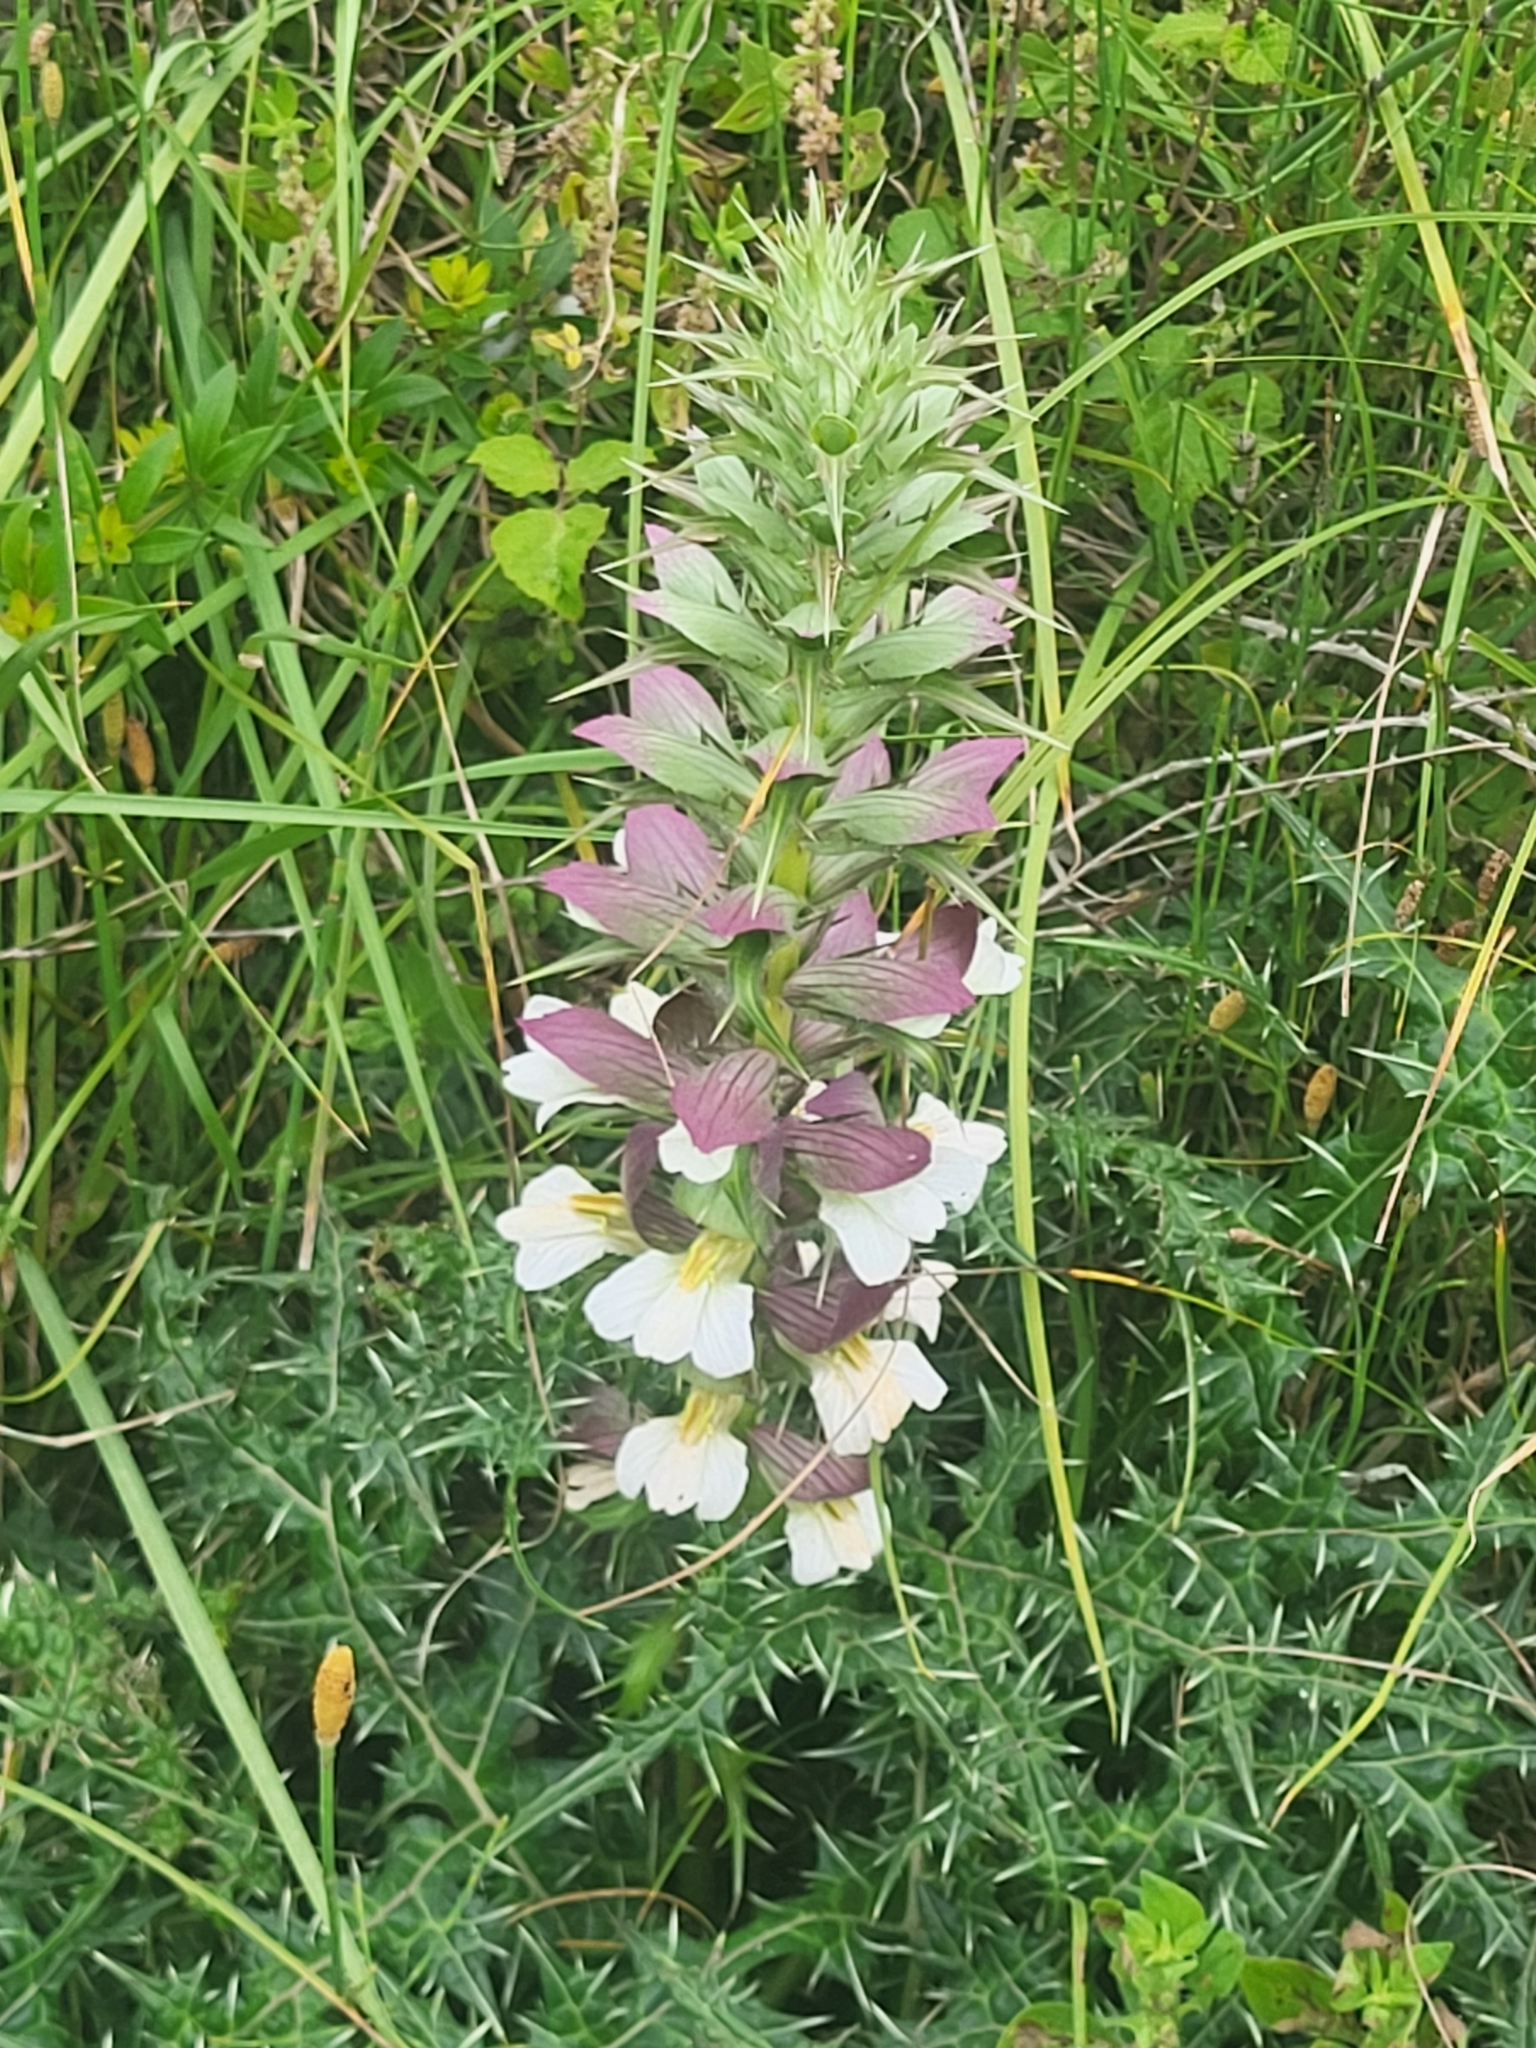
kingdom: Plantae
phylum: Tracheophyta
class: Magnoliopsida
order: Lamiales
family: Acanthaceae
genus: Acanthus
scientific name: Acanthus spinosus
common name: Spiny bear's-breech
